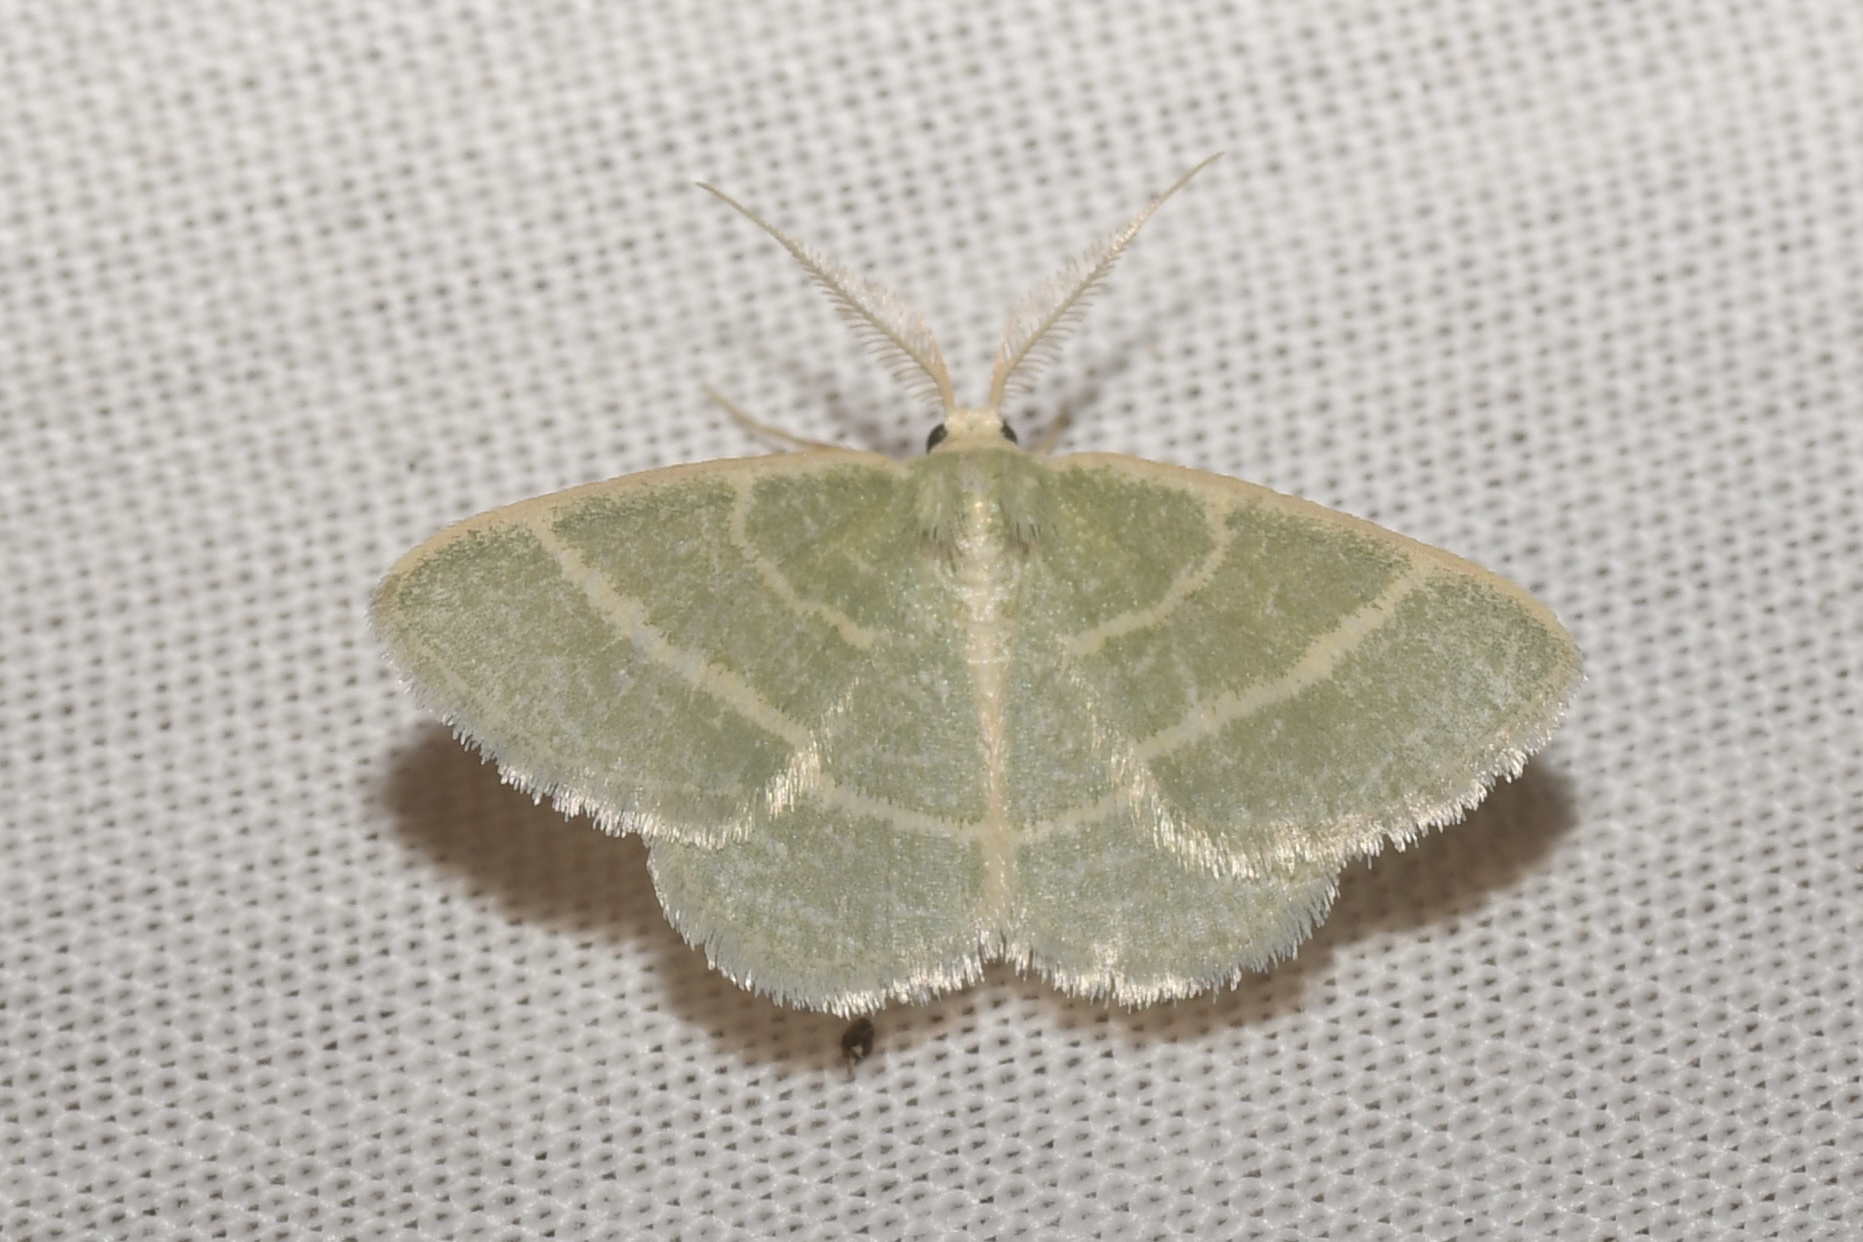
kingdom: Animalia
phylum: Arthropoda
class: Insecta
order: Lepidoptera
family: Geometridae
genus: Chlorochlamys
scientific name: Chlorochlamys chloroleucaria
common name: Blackberry looper
